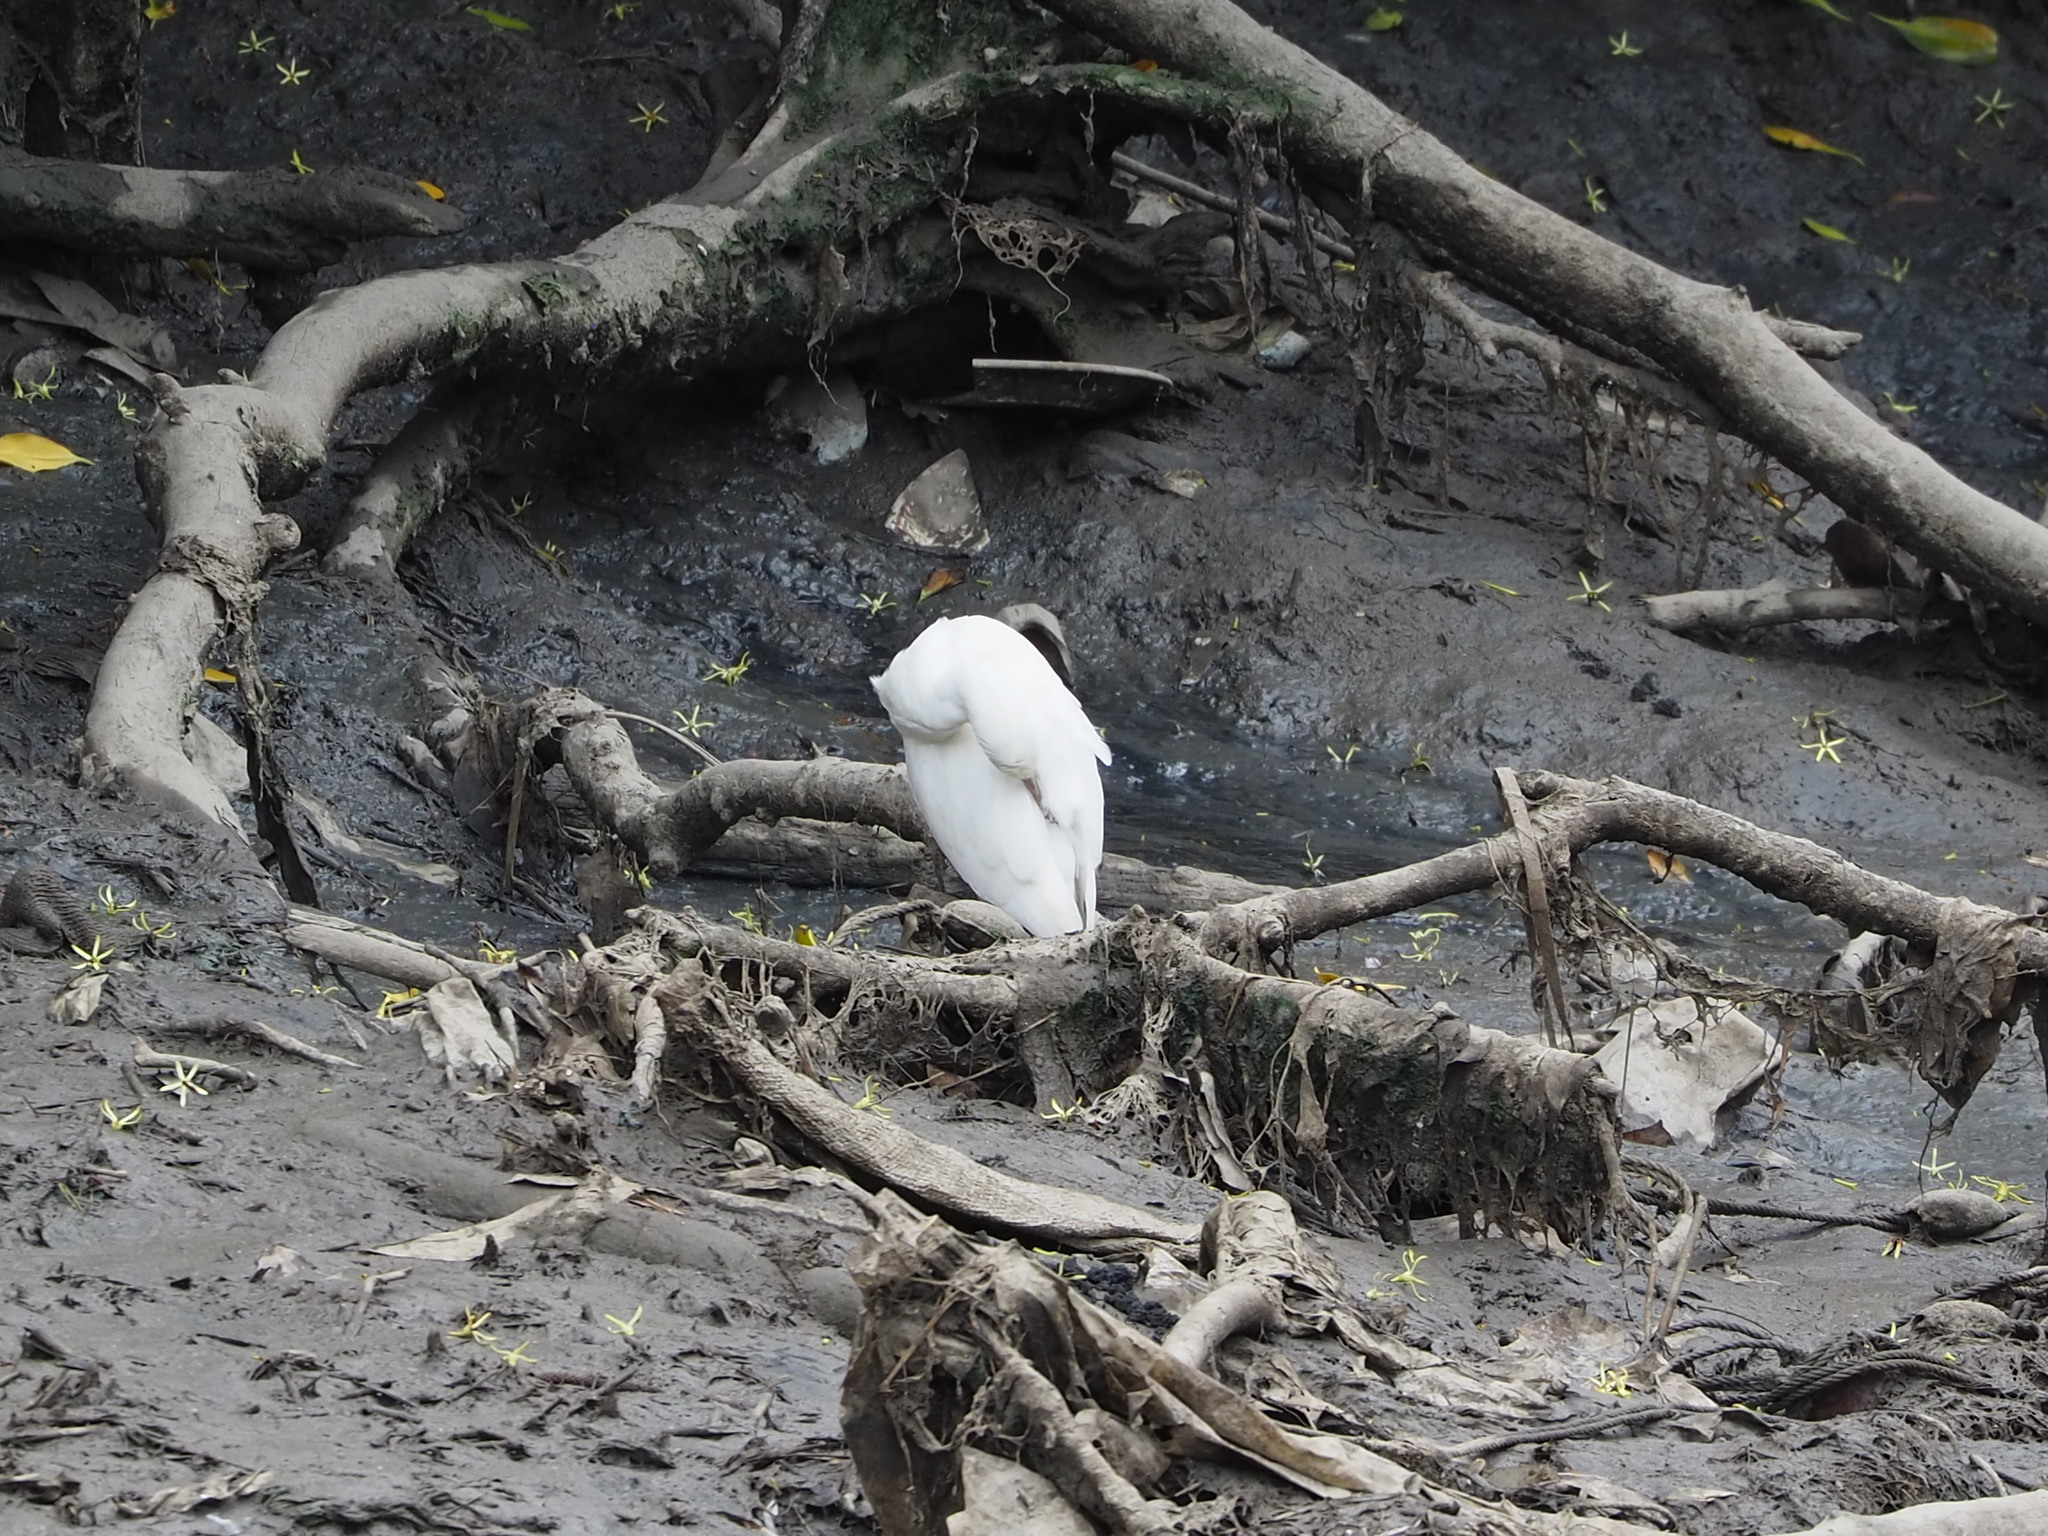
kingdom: Animalia
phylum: Chordata
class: Aves
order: Pelecaniformes
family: Ardeidae
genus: Egretta
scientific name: Egretta garzetta
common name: Little egret
